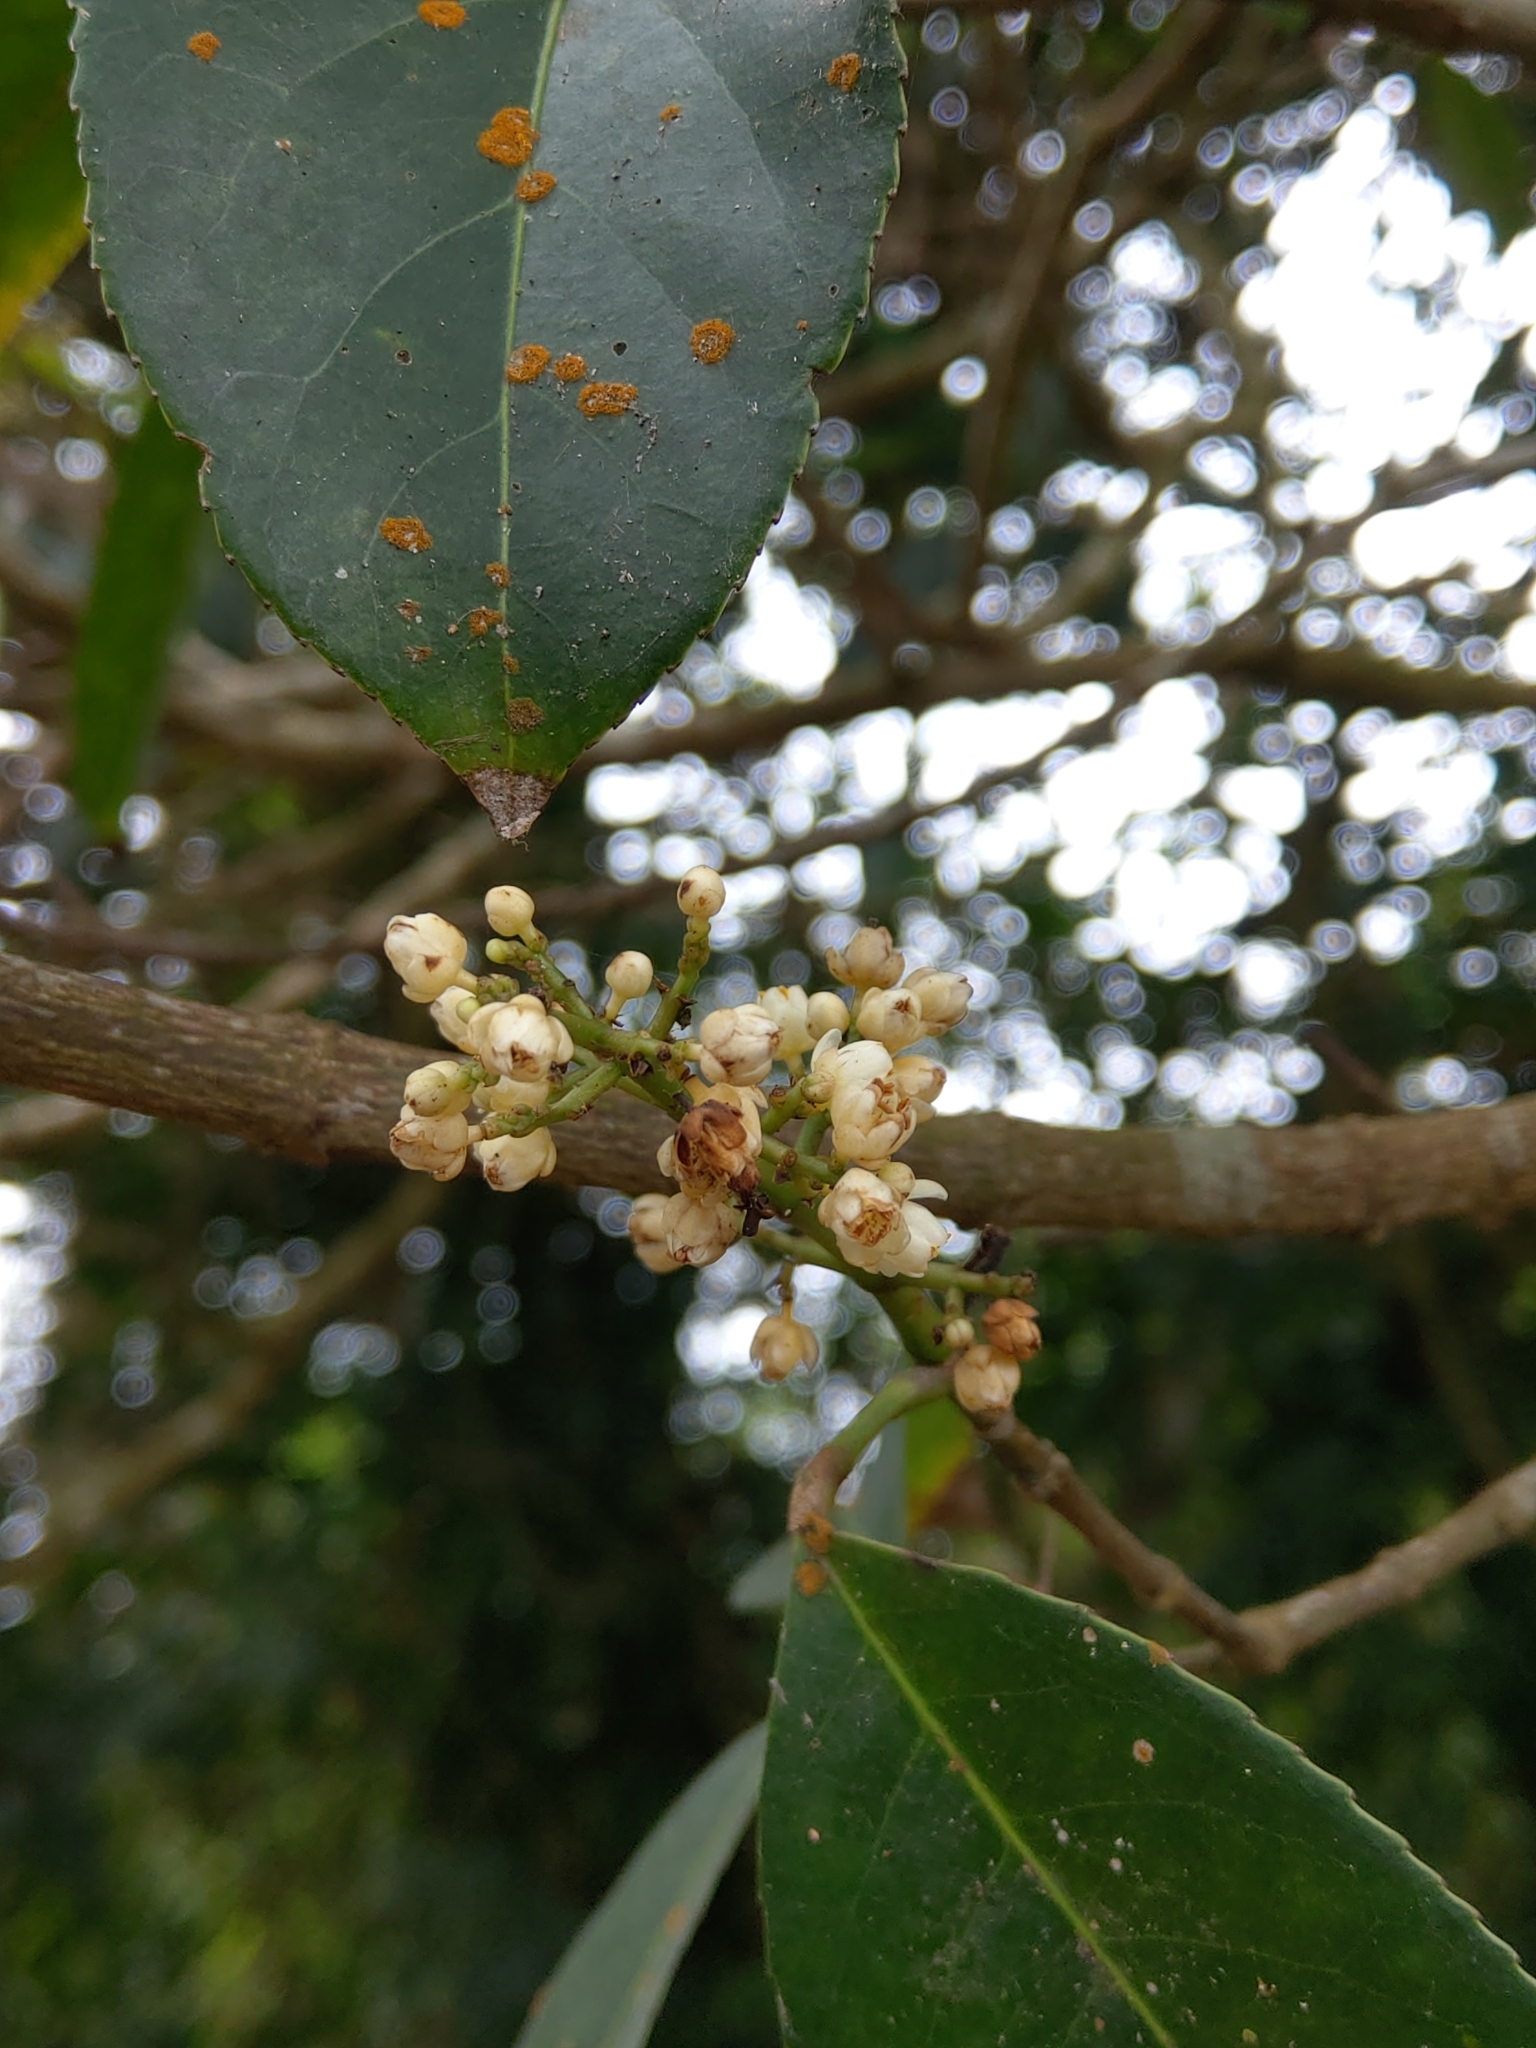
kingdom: Plantae
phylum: Tracheophyta
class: Magnoliopsida
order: Crossosomatales
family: Staphyleaceae
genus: Turpinia
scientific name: Turpinia formosana
